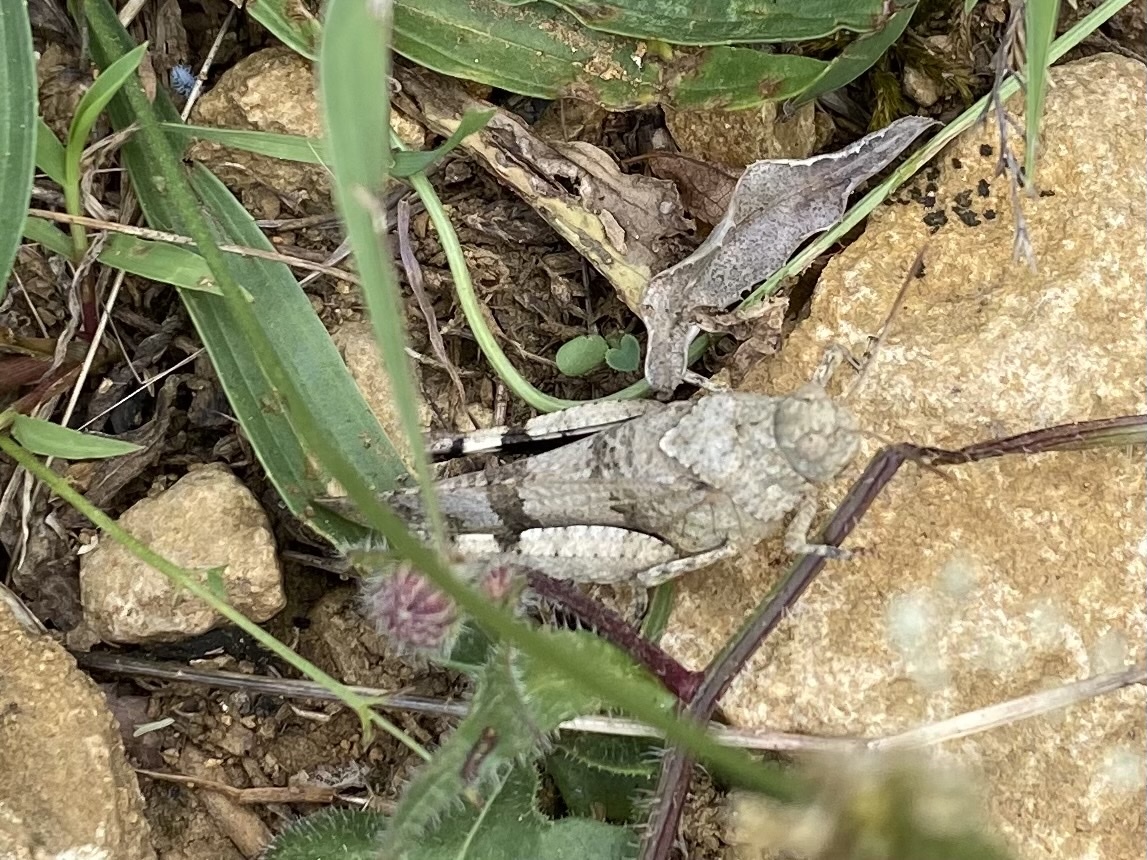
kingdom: Animalia
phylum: Arthropoda
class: Insecta
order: Orthoptera
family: Acrididae
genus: Oedipoda
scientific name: Oedipoda caerulescens
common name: Blue-winged grasshopper
